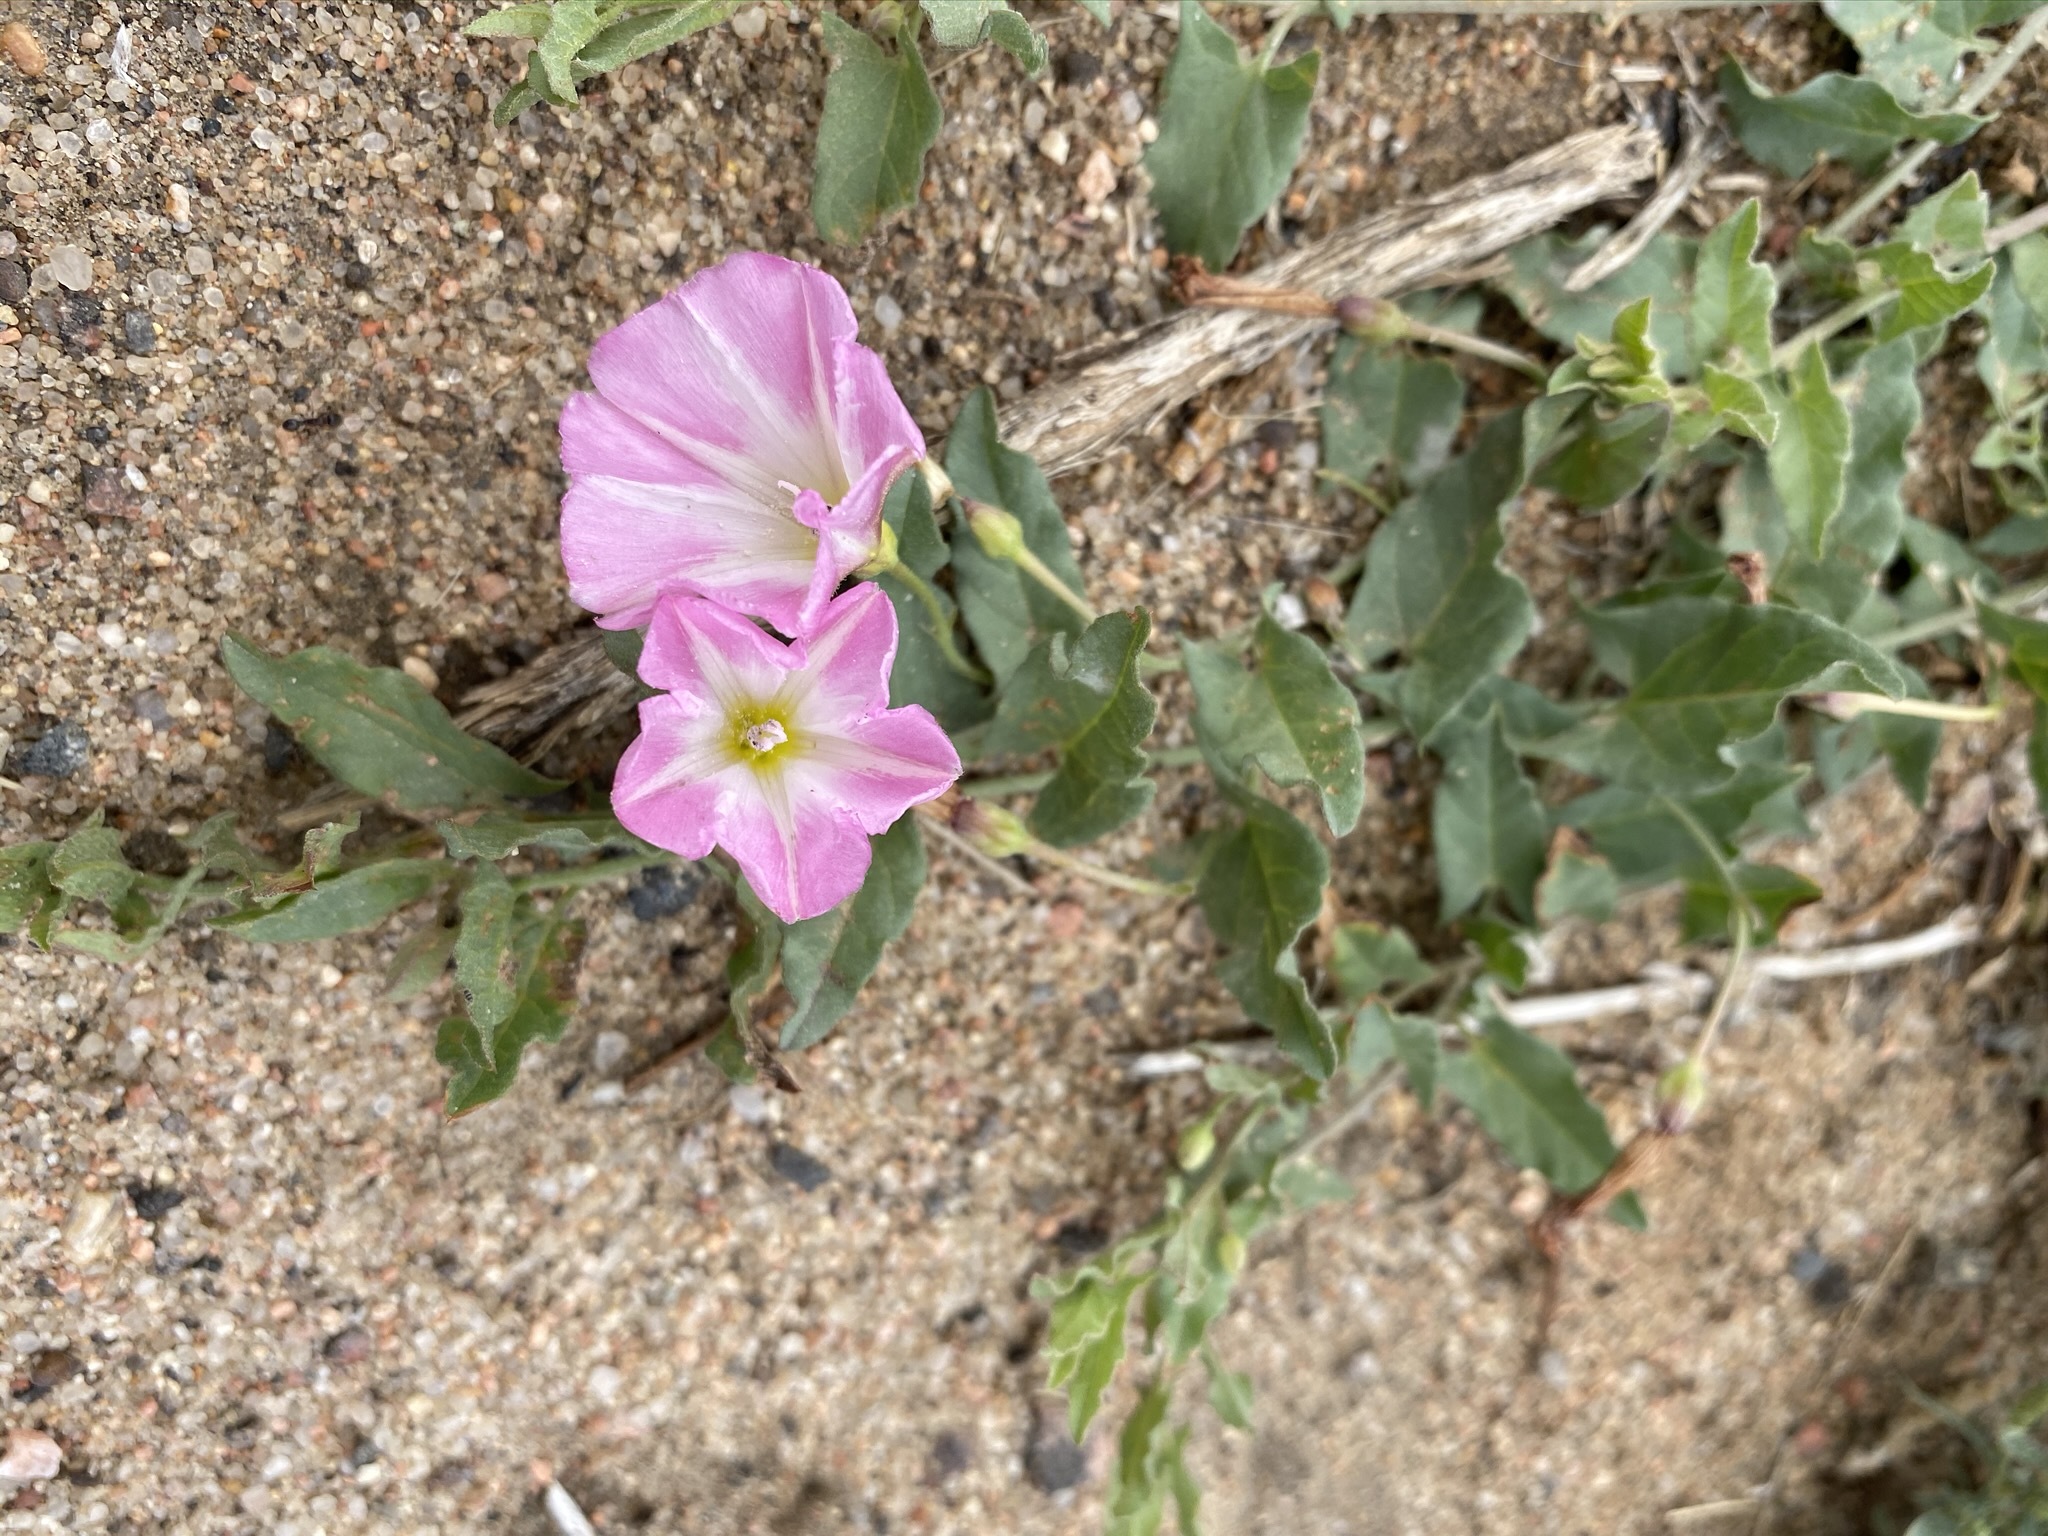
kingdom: Plantae
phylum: Tracheophyta
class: Magnoliopsida
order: Solanales
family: Convolvulaceae
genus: Convolvulus
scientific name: Convolvulus arvensis
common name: Field bindweed
